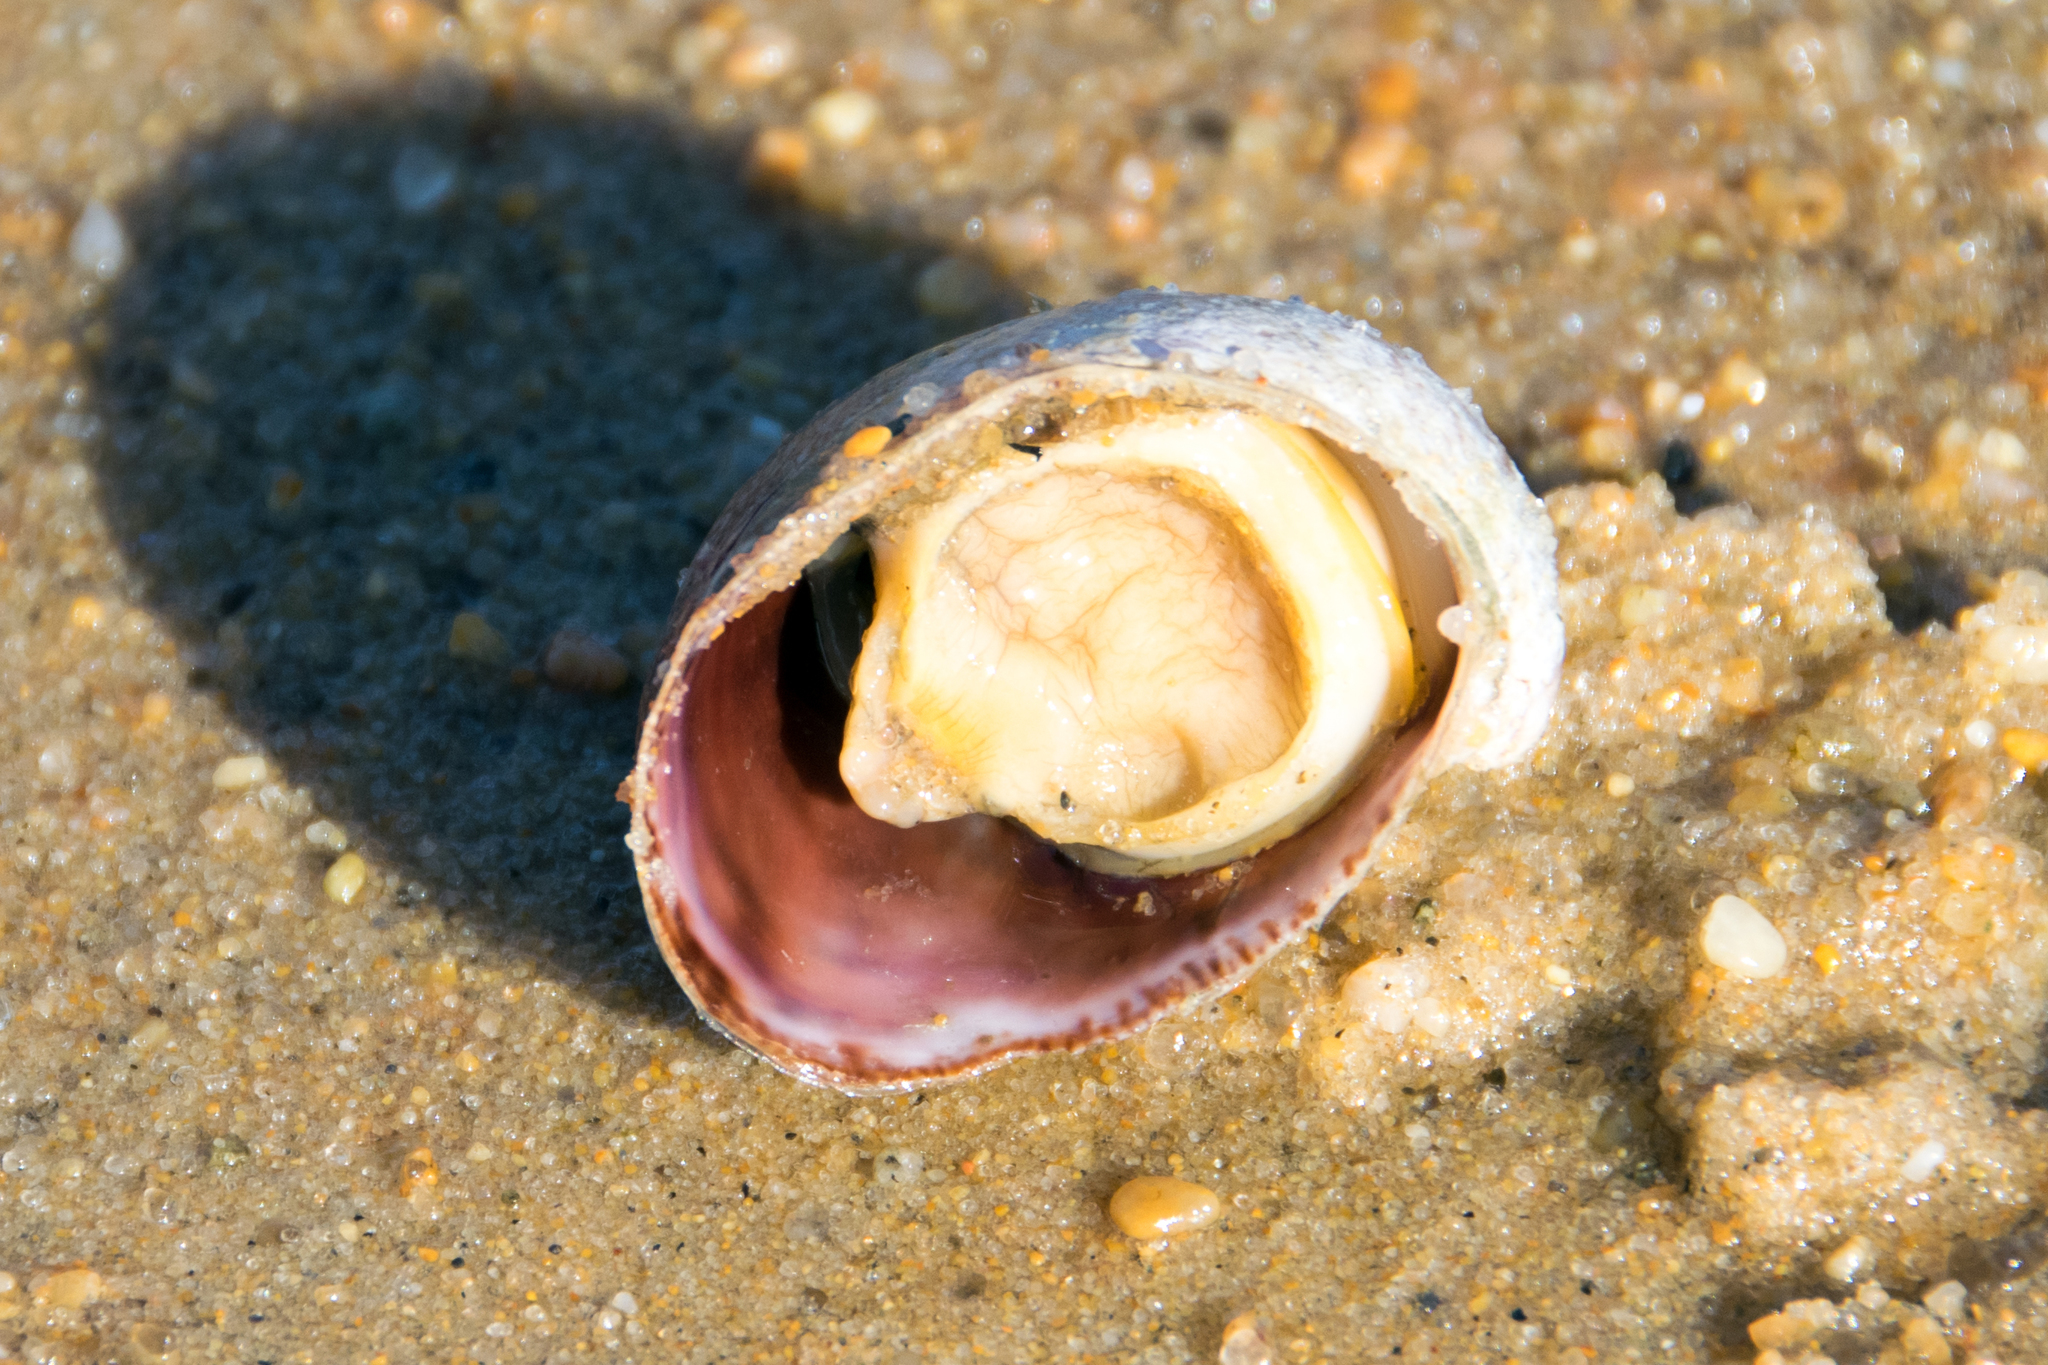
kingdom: Animalia
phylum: Mollusca
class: Gastropoda
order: Littorinimorpha
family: Calyptraeidae
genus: Crepidula
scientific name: Crepidula fornicata
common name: Slipper limpet
